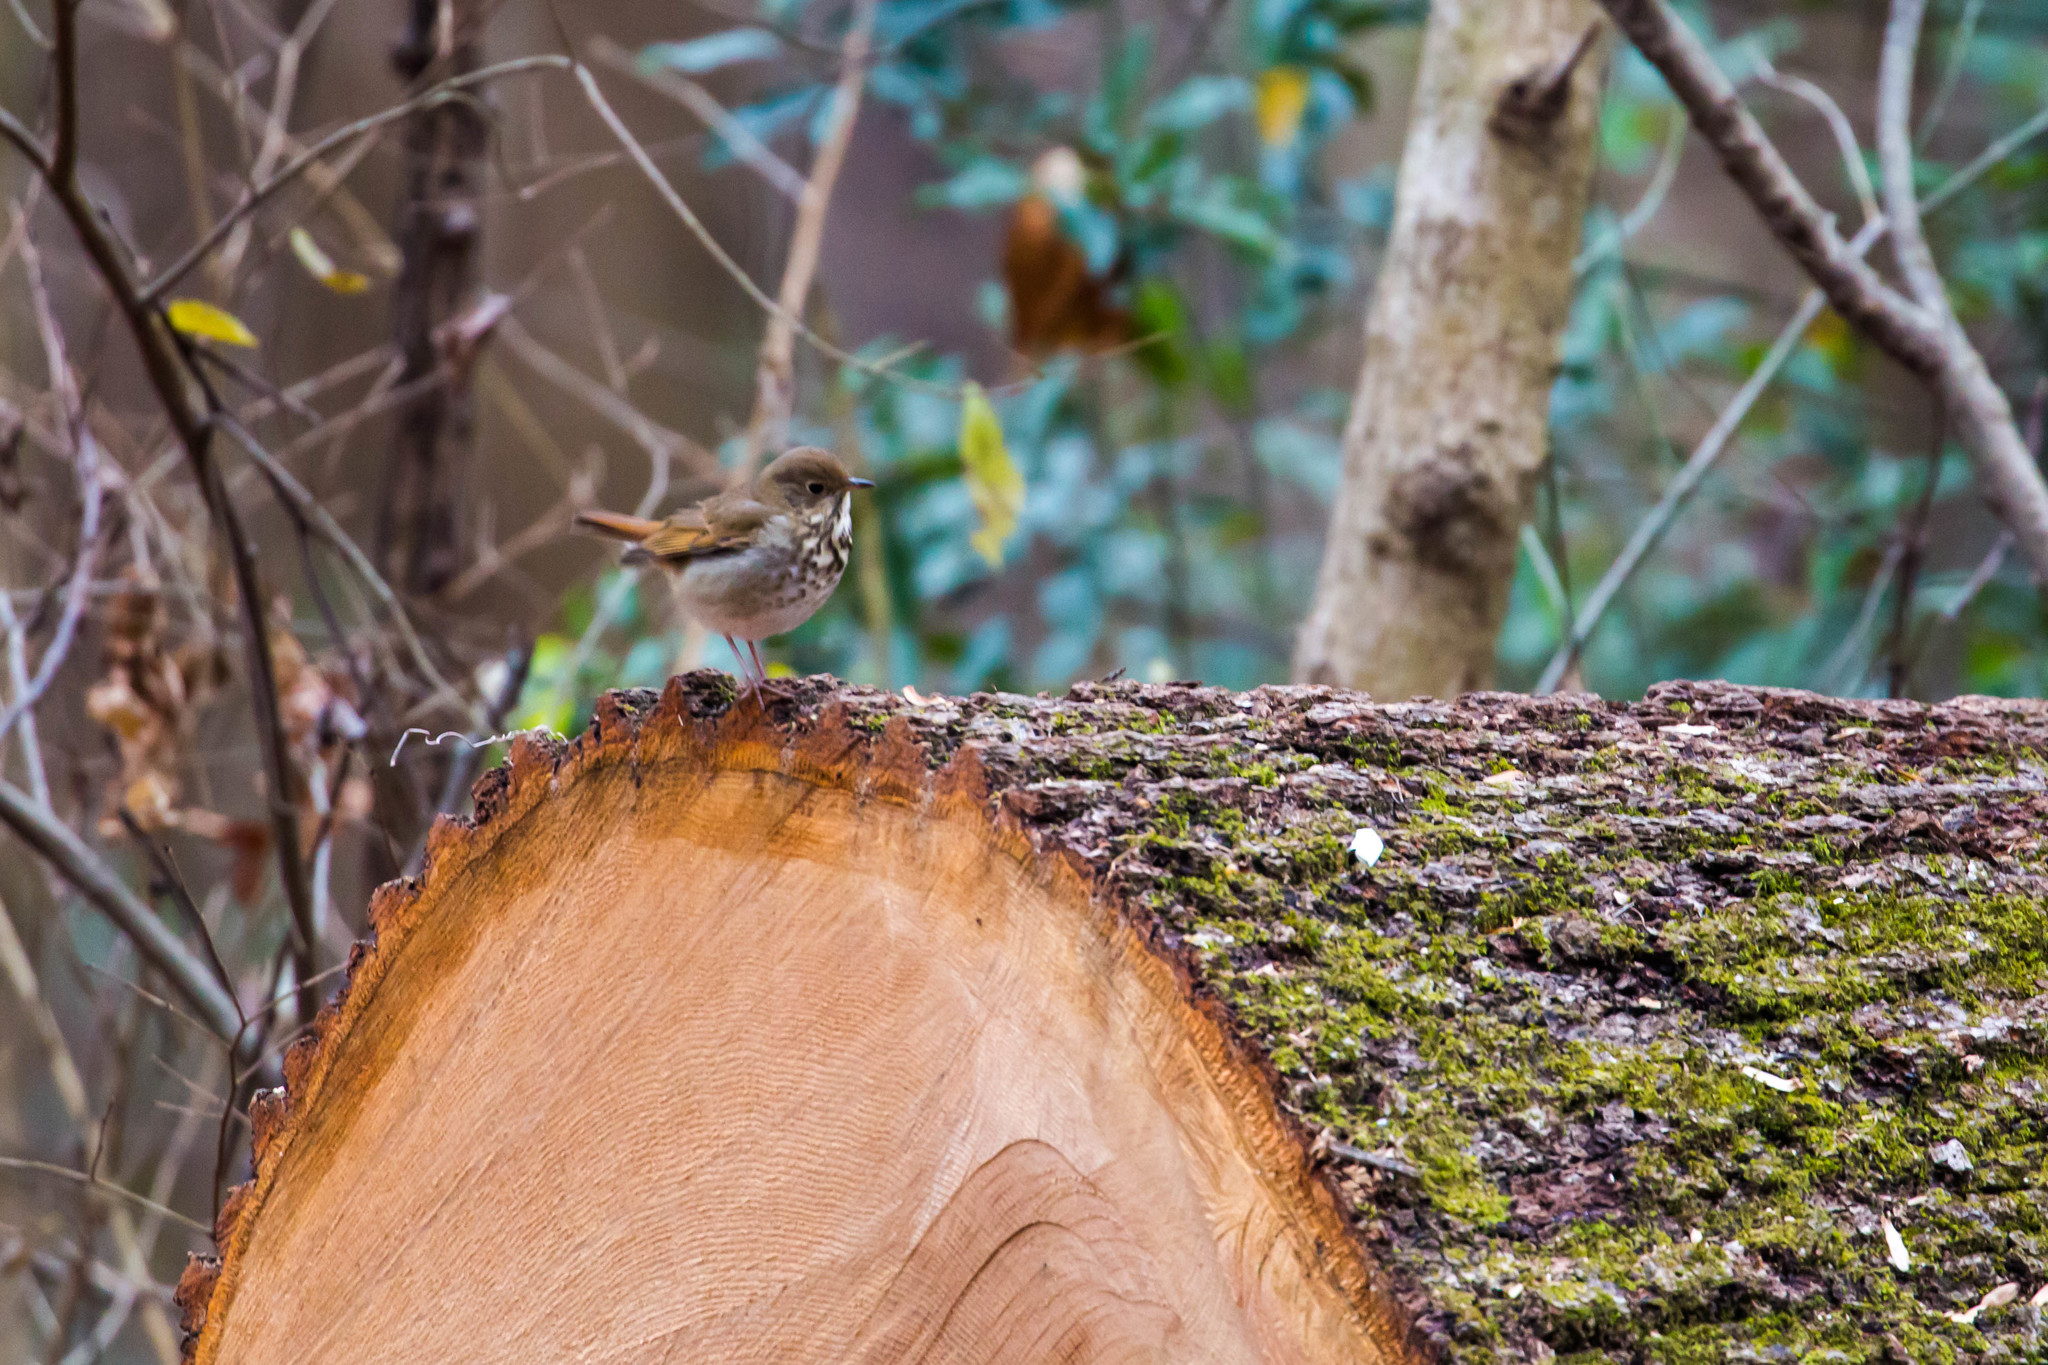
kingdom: Animalia
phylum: Chordata
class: Aves
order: Passeriformes
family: Turdidae
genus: Catharus
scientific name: Catharus guttatus
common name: Hermit thrush
